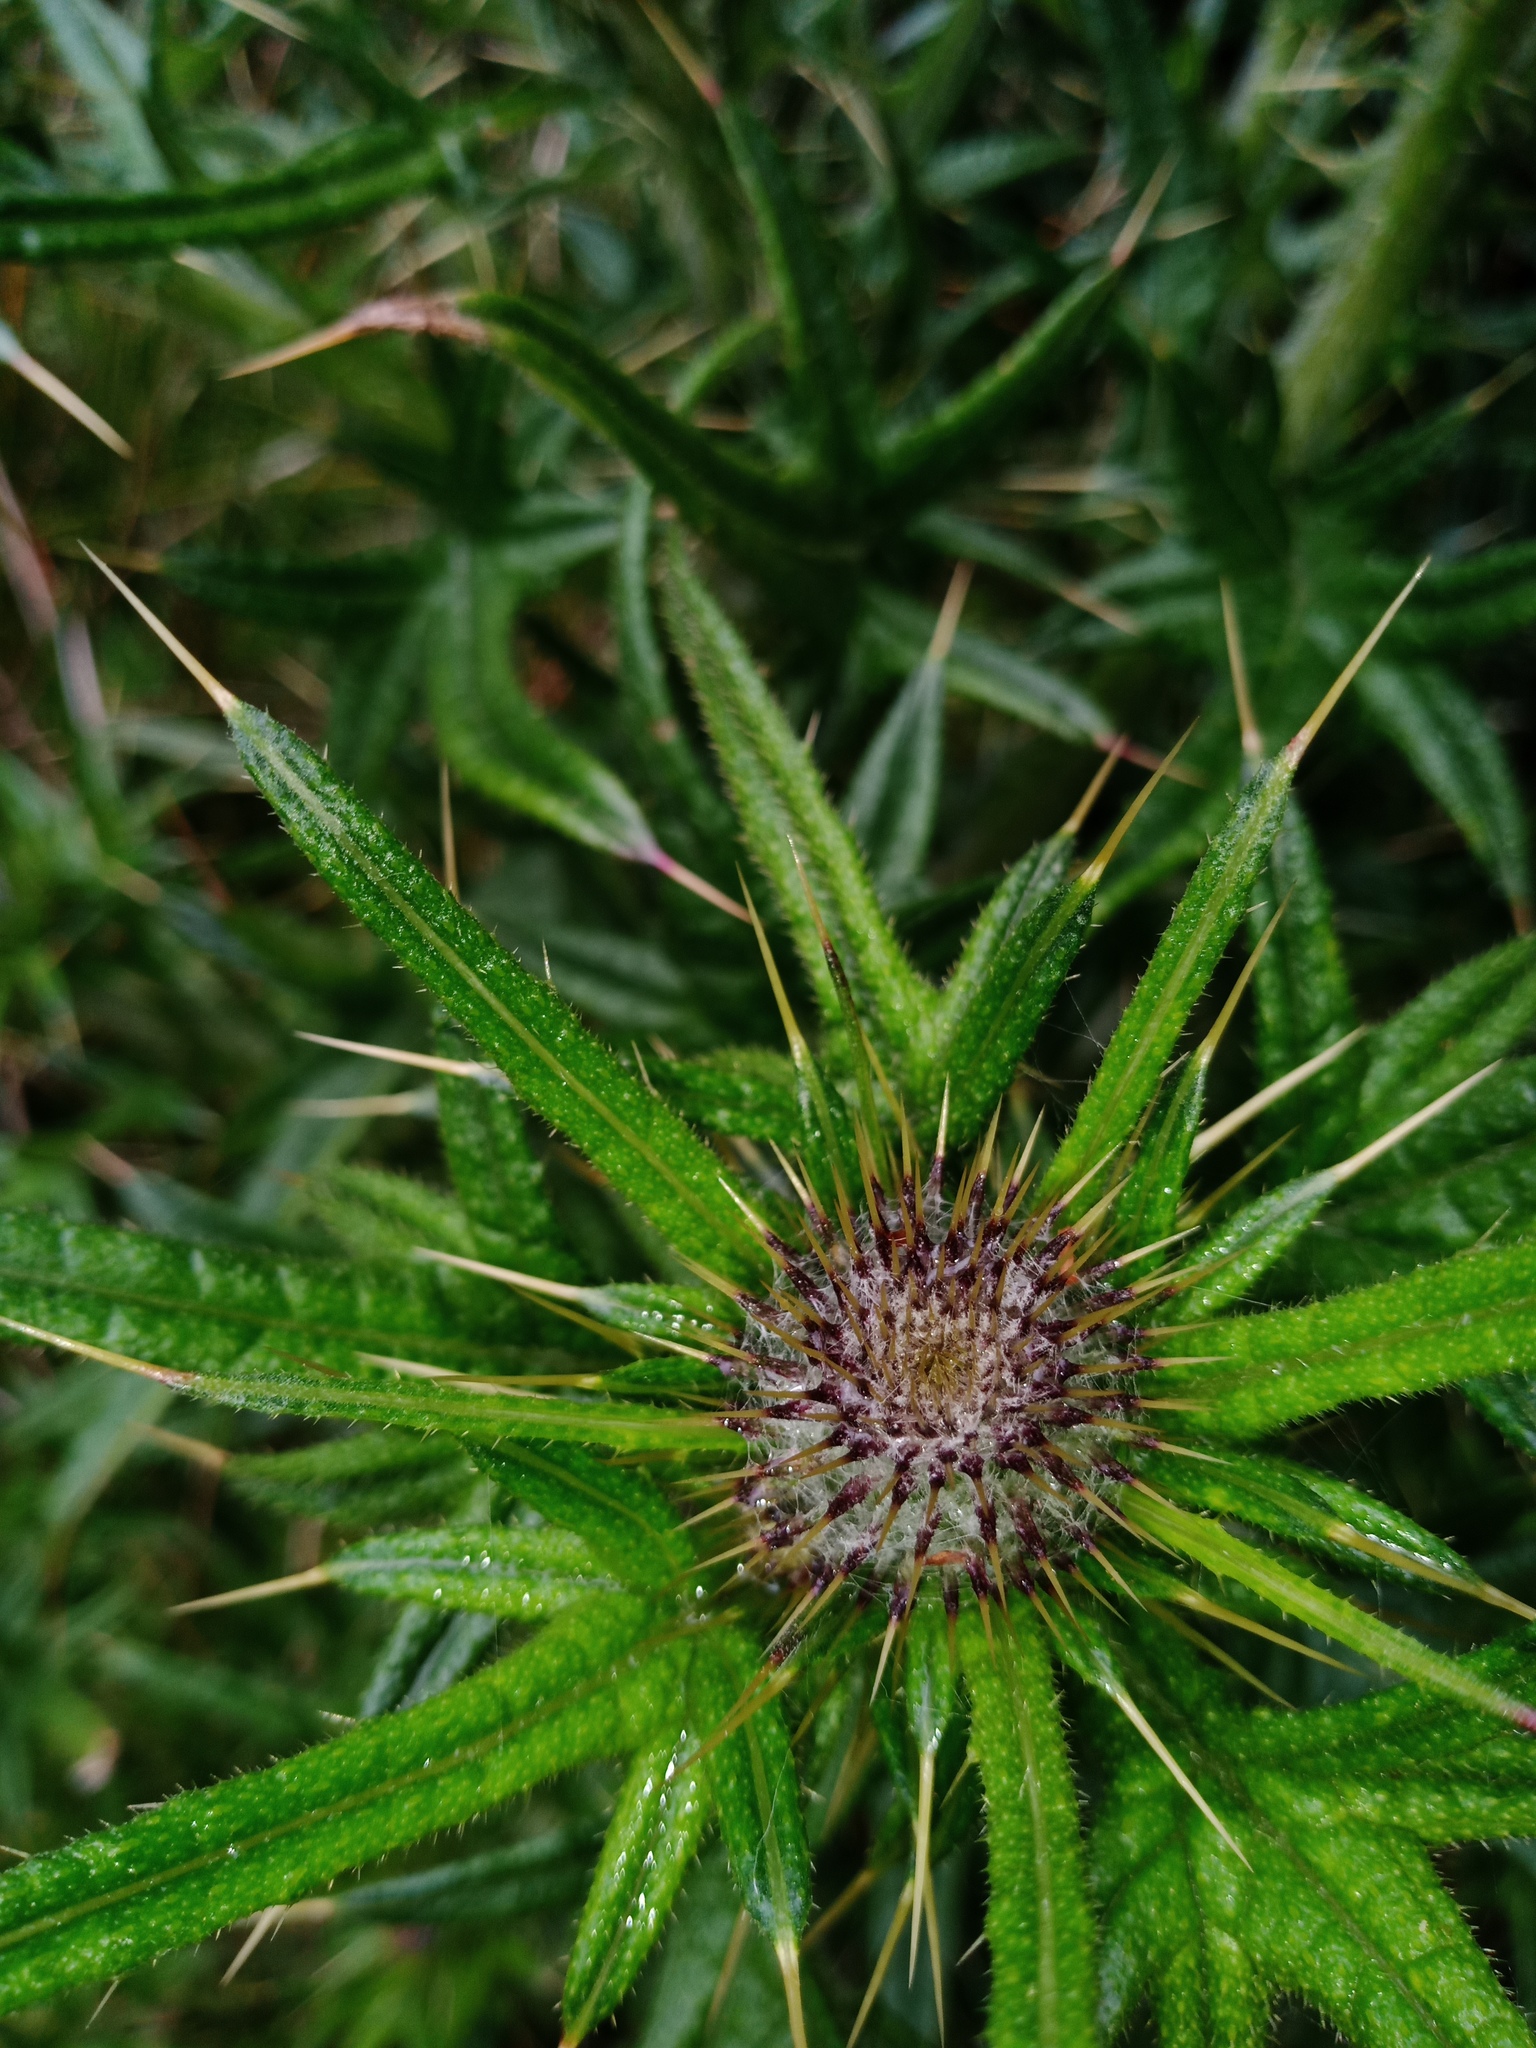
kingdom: Plantae
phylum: Tracheophyta
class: Magnoliopsida
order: Asterales
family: Asteraceae
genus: Cirsium
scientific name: Cirsium vulgare
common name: Bull thistle
